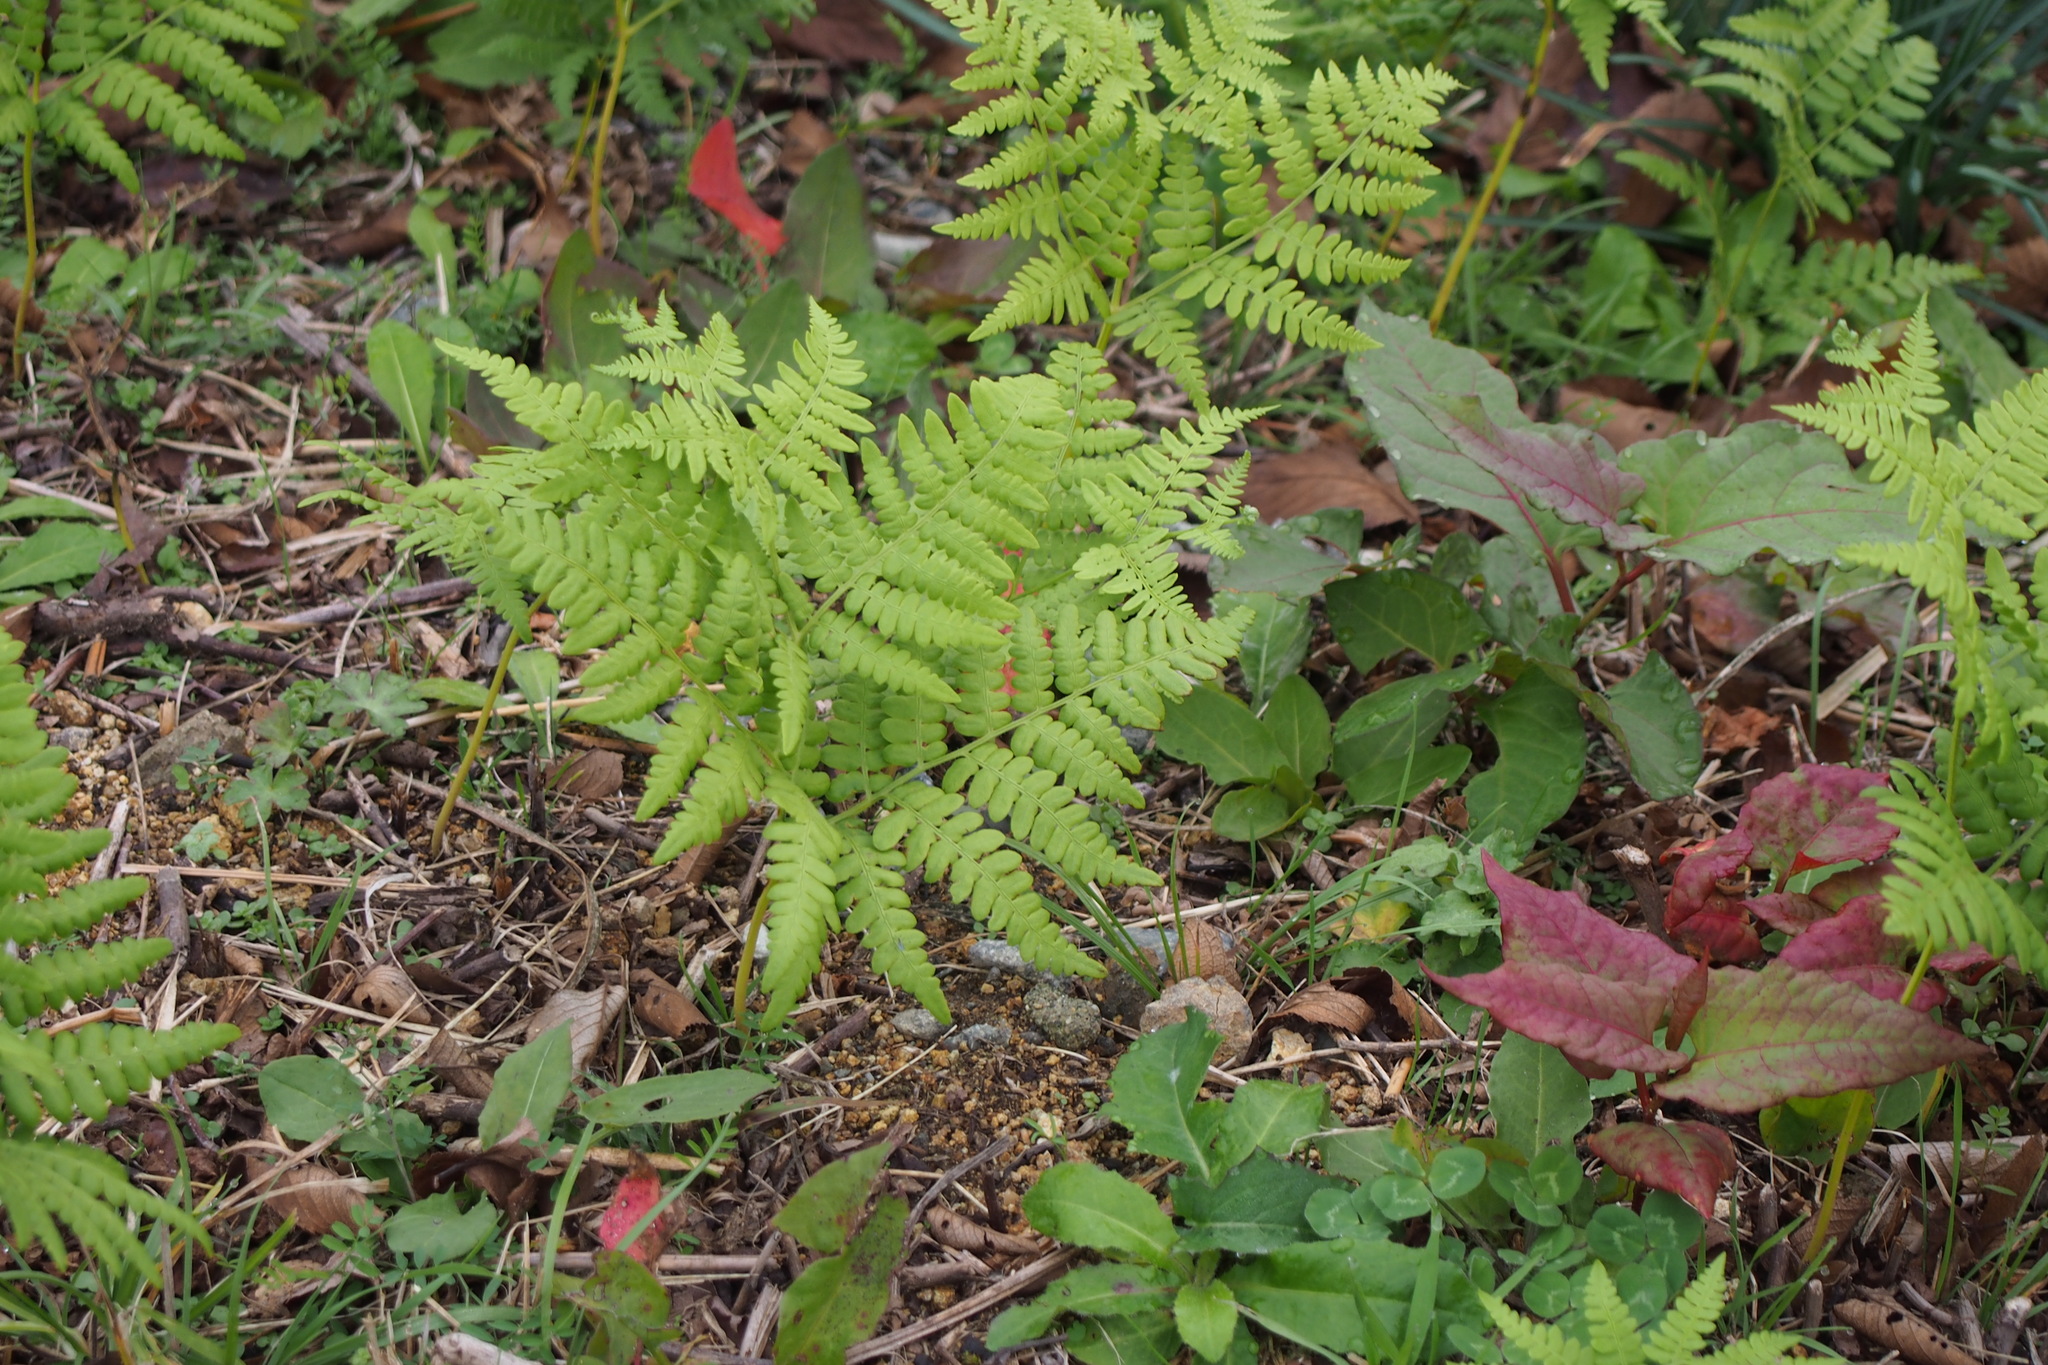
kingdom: Plantae
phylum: Tracheophyta
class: Polypodiopsida
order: Polypodiales
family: Dennstaedtiaceae
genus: Pteridium
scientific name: Pteridium aquilinum
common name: Bracken
